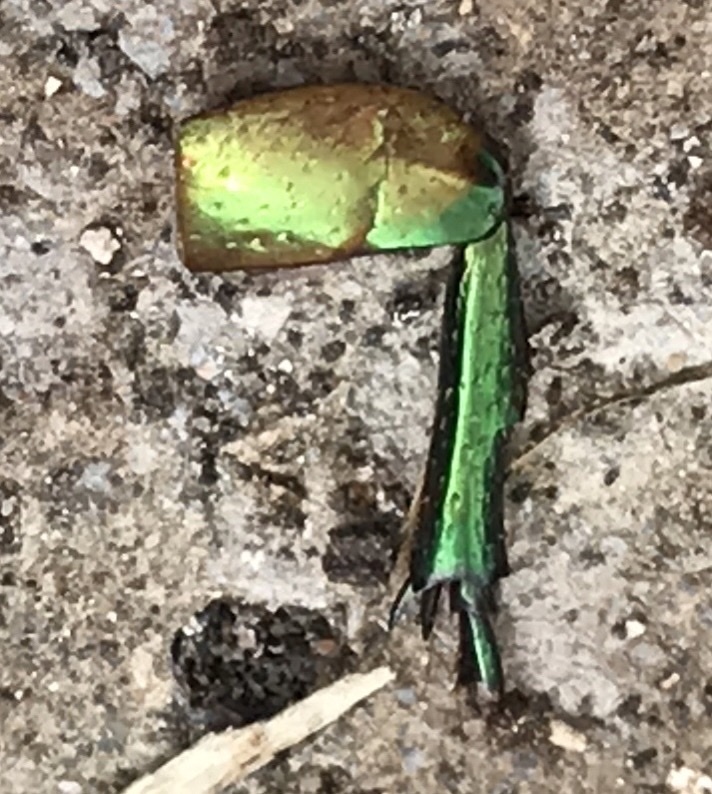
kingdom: Animalia
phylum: Arthropoda
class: Insecta
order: Coleoptera
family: Scarabaeidae
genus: Cotinis
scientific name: Cotinis nitida
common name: Common green june beetle
